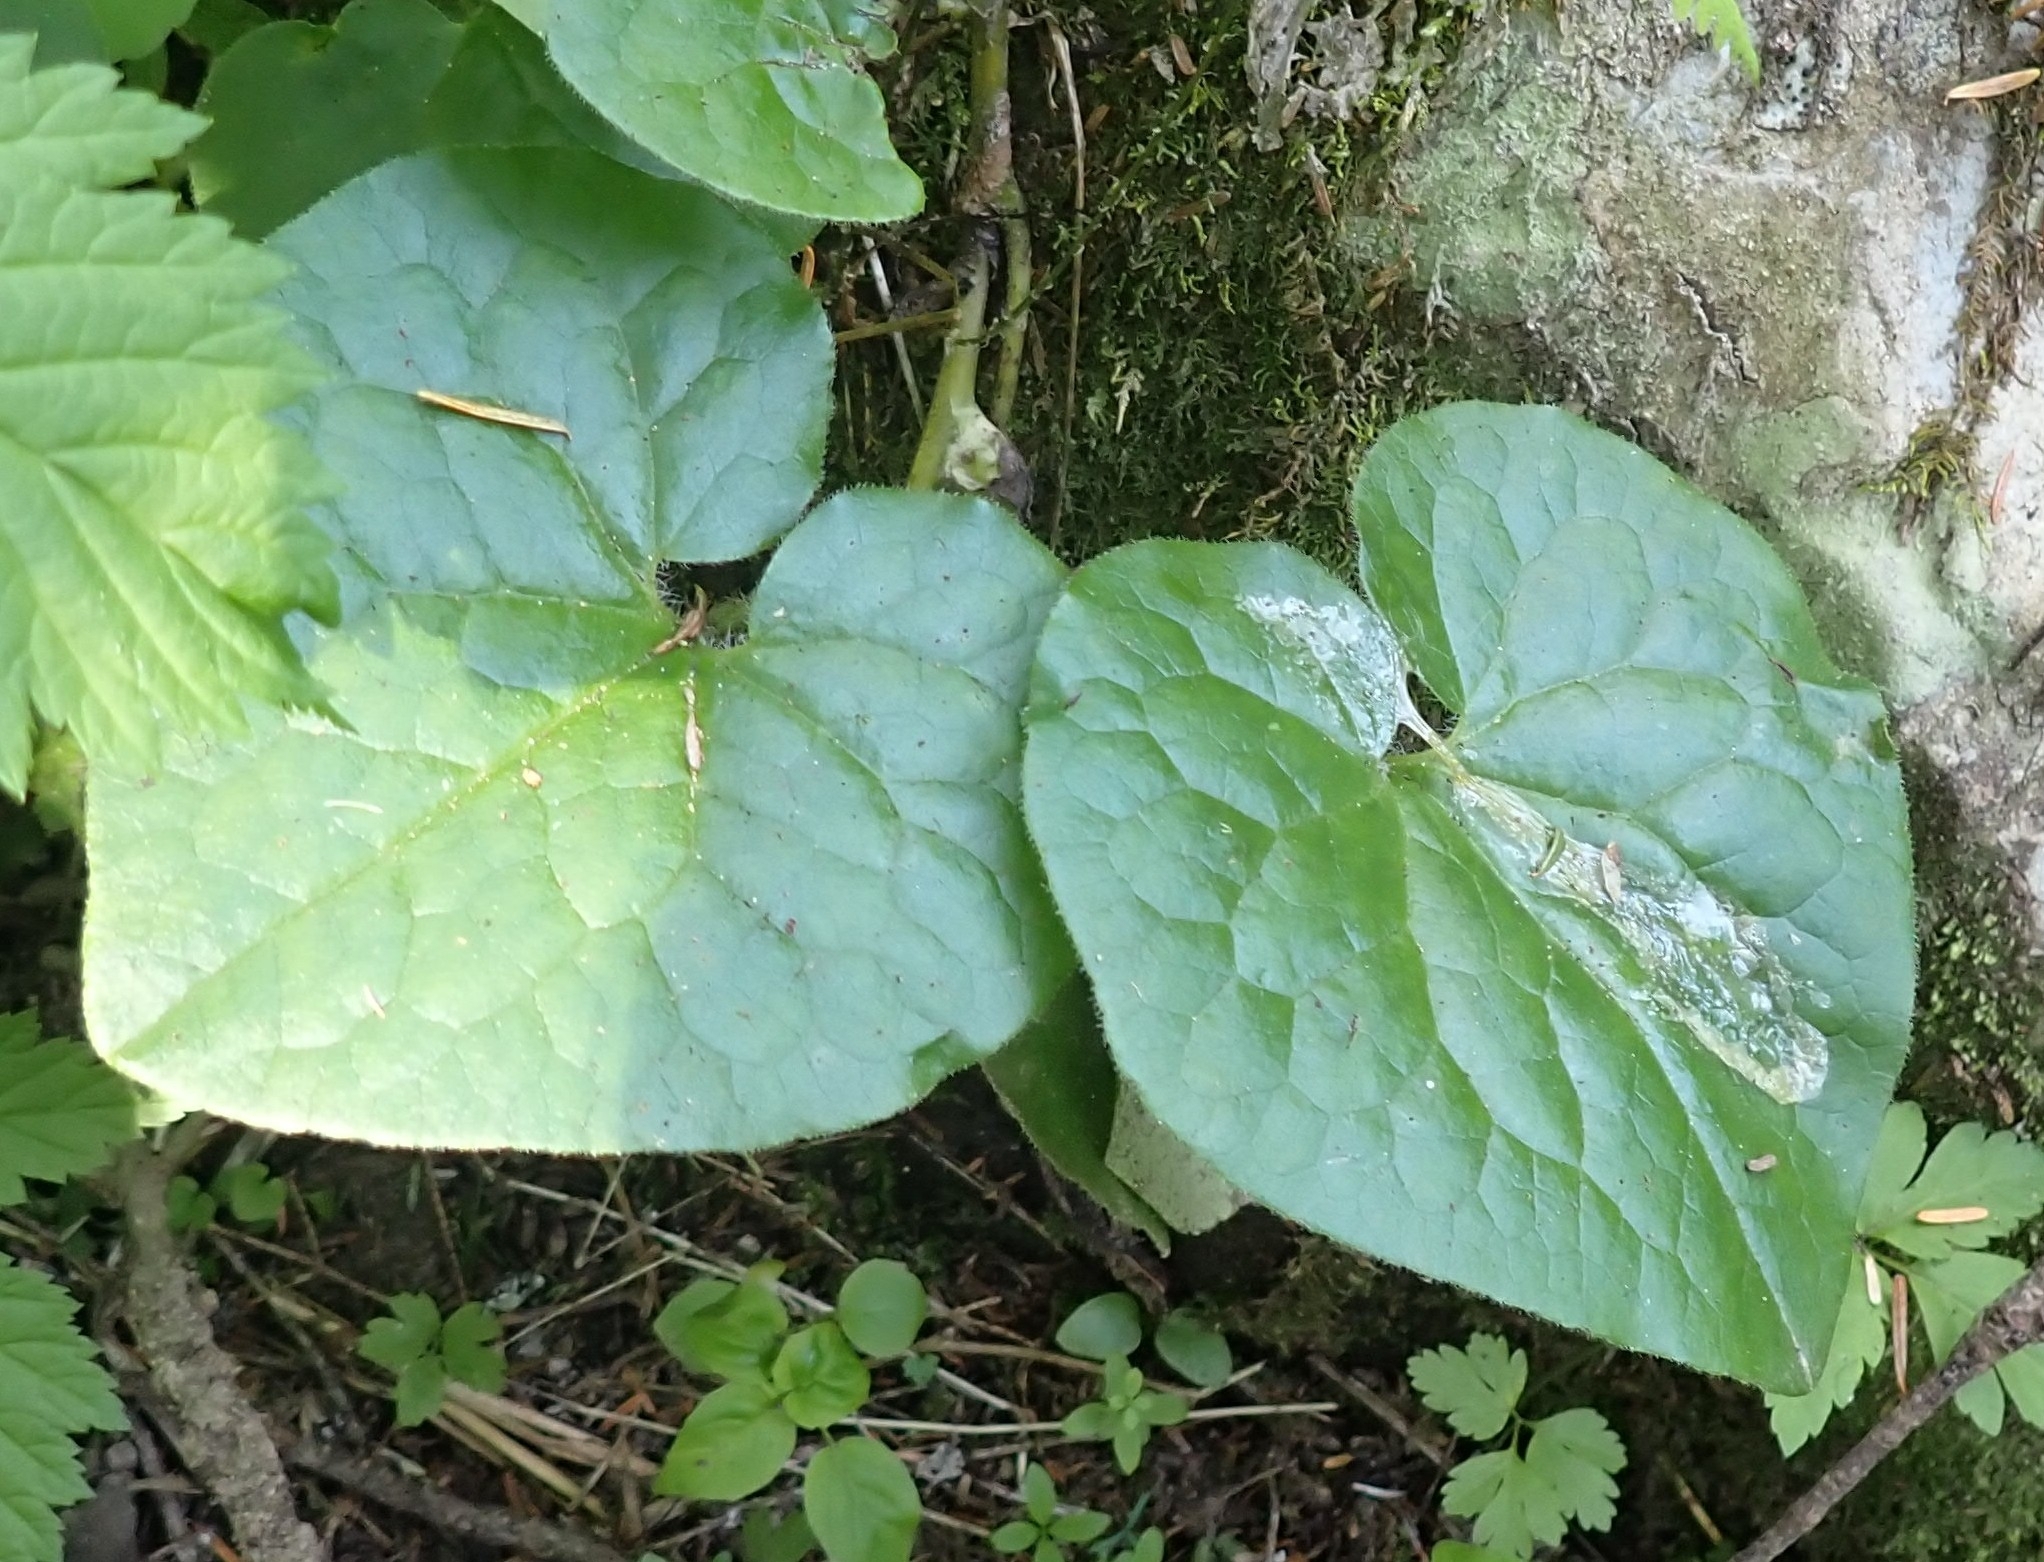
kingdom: Plantae
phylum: Tracheophyta
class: Magnoliopsida
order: Piperales
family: Aristolochiaceae
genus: Asarum
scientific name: Asarum caudatum
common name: Wild ginger
